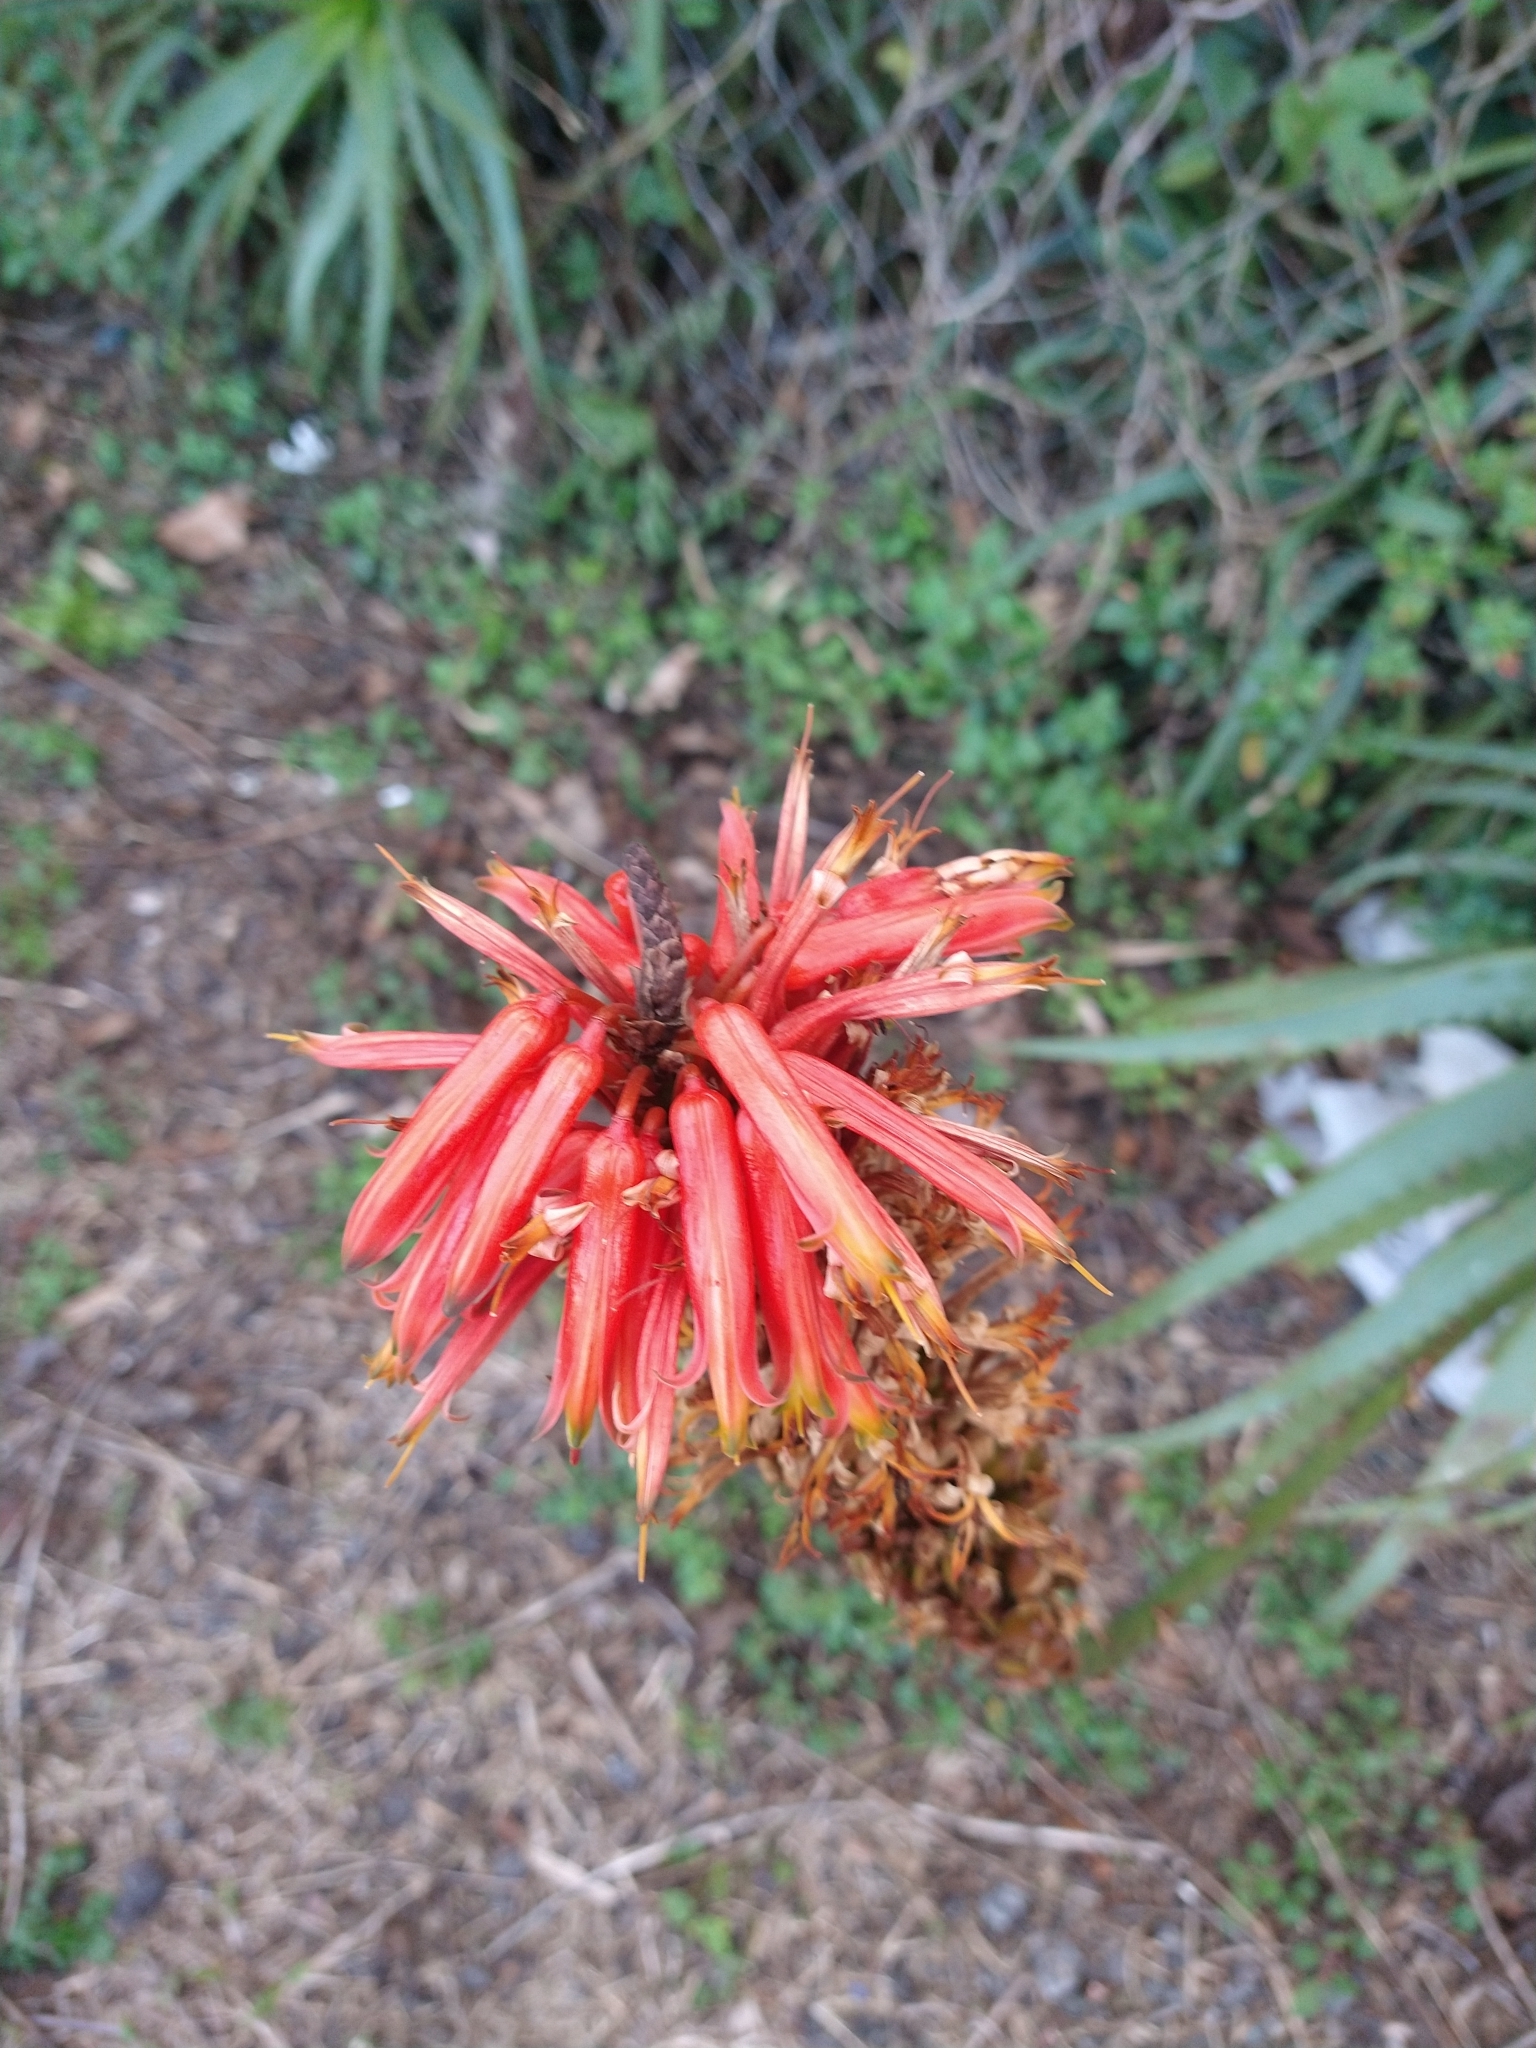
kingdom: Plantae
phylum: Tracheophyta
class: Liliopsida
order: Asparagales
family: Asphodelaceae
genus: Aloe
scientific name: Aloe arborescens
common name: Candelabra aloe
